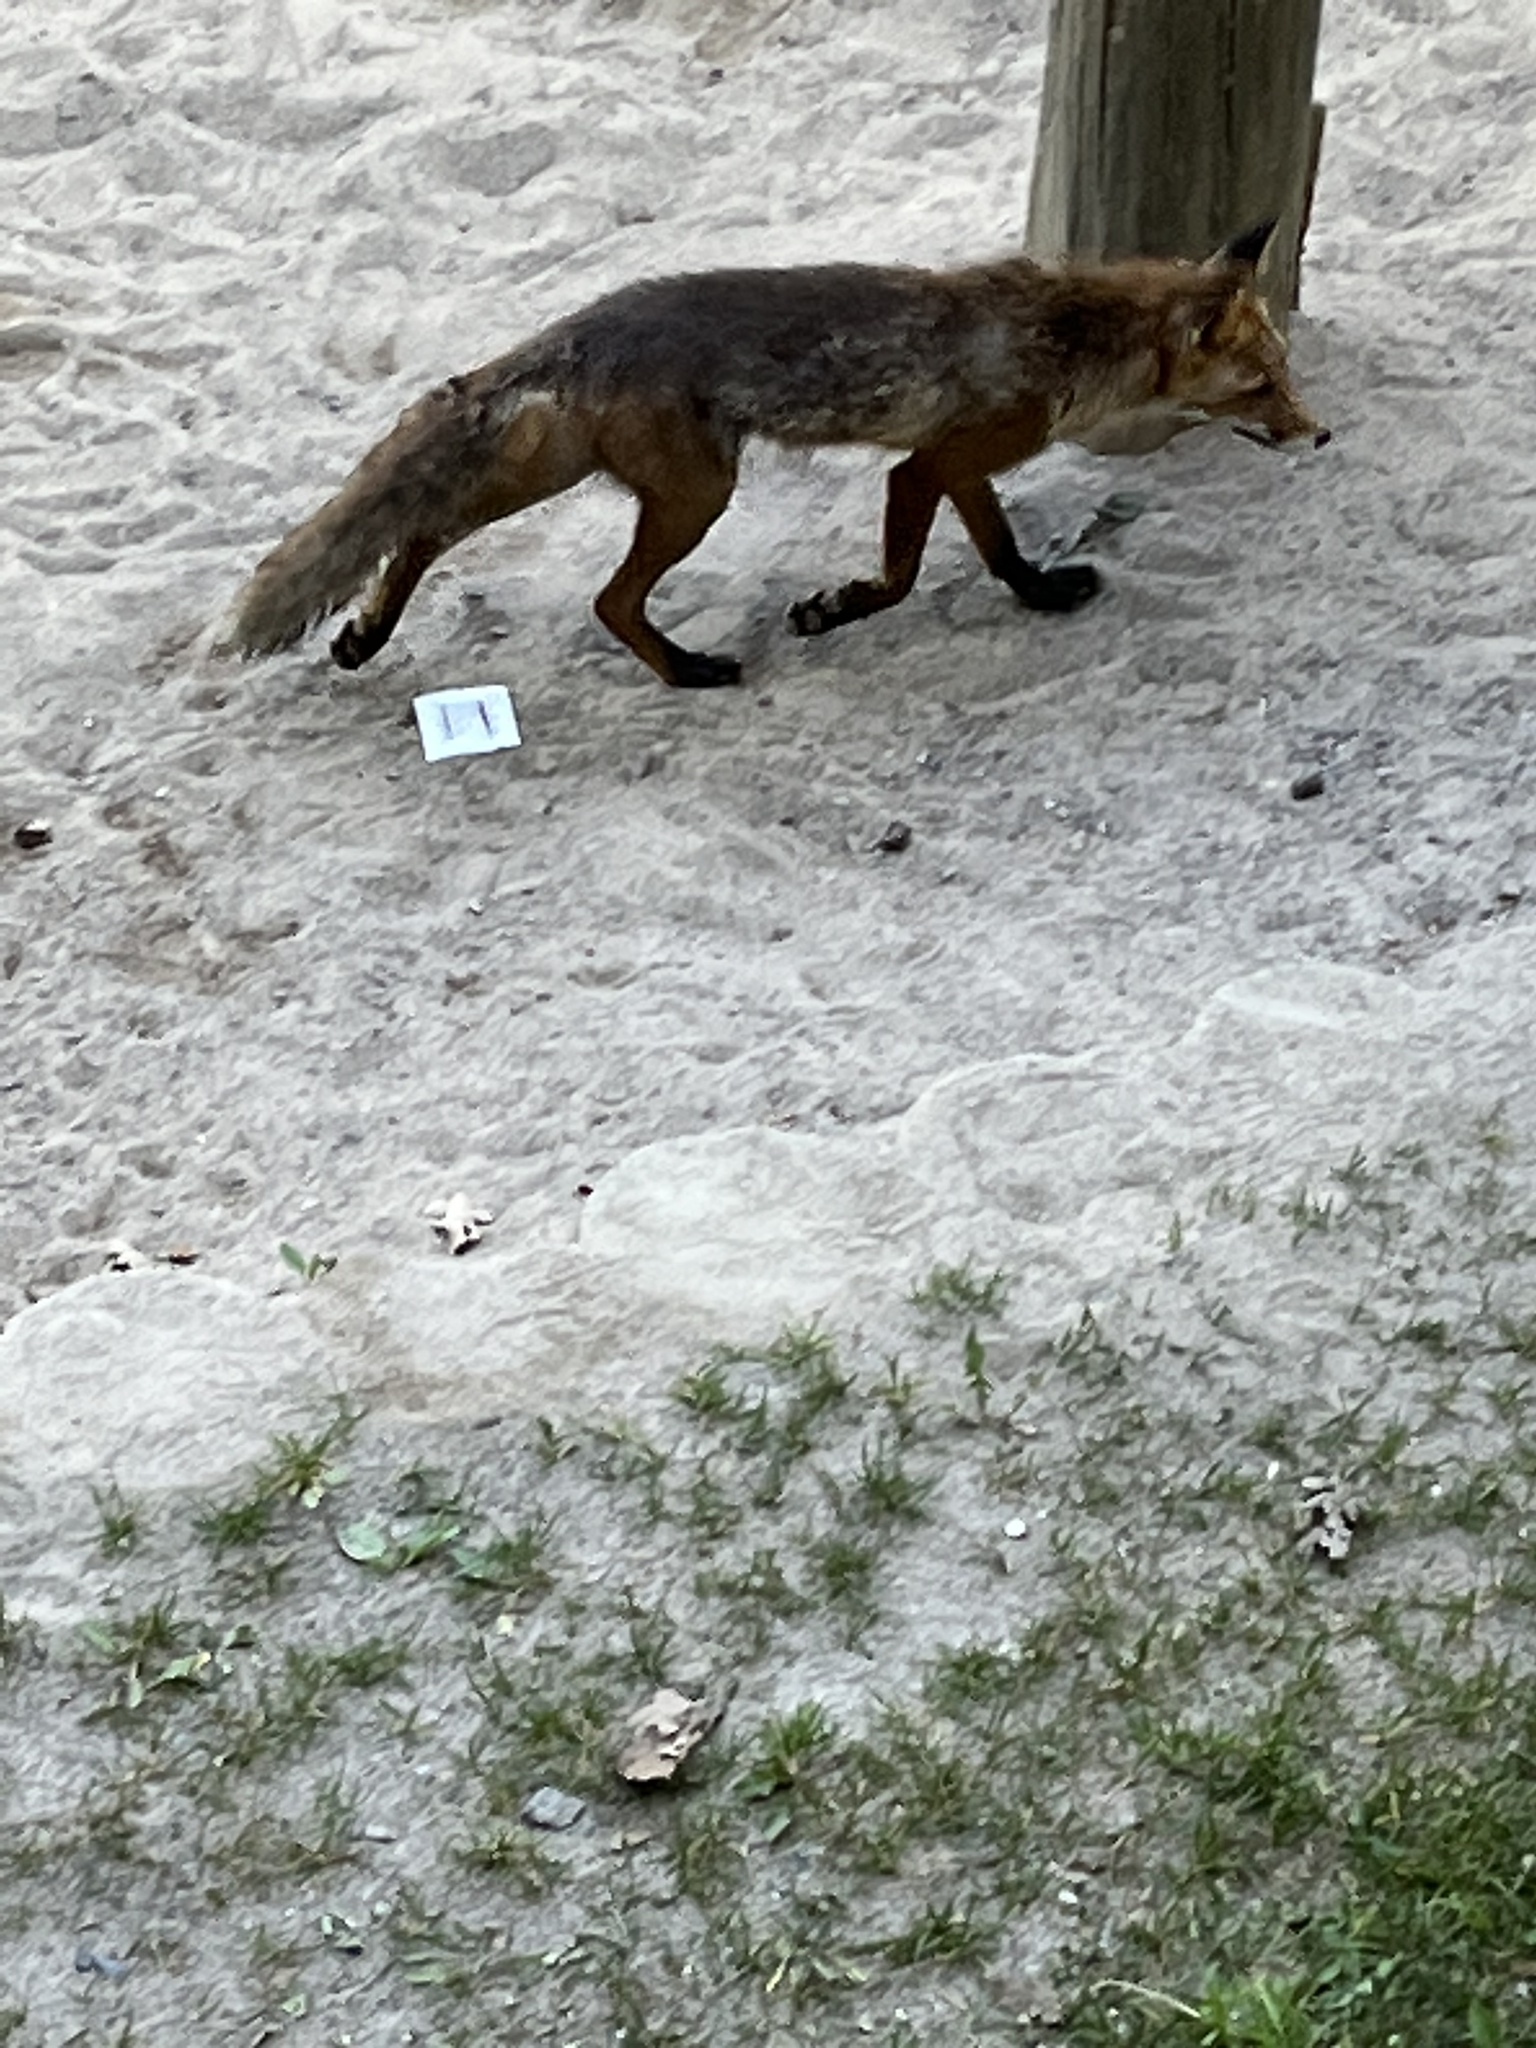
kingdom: Animalia
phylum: Chordata
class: Mammalia
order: Carnivora
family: Canidae
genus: Vulpes
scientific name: Vulpes vulpes
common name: Red fox
